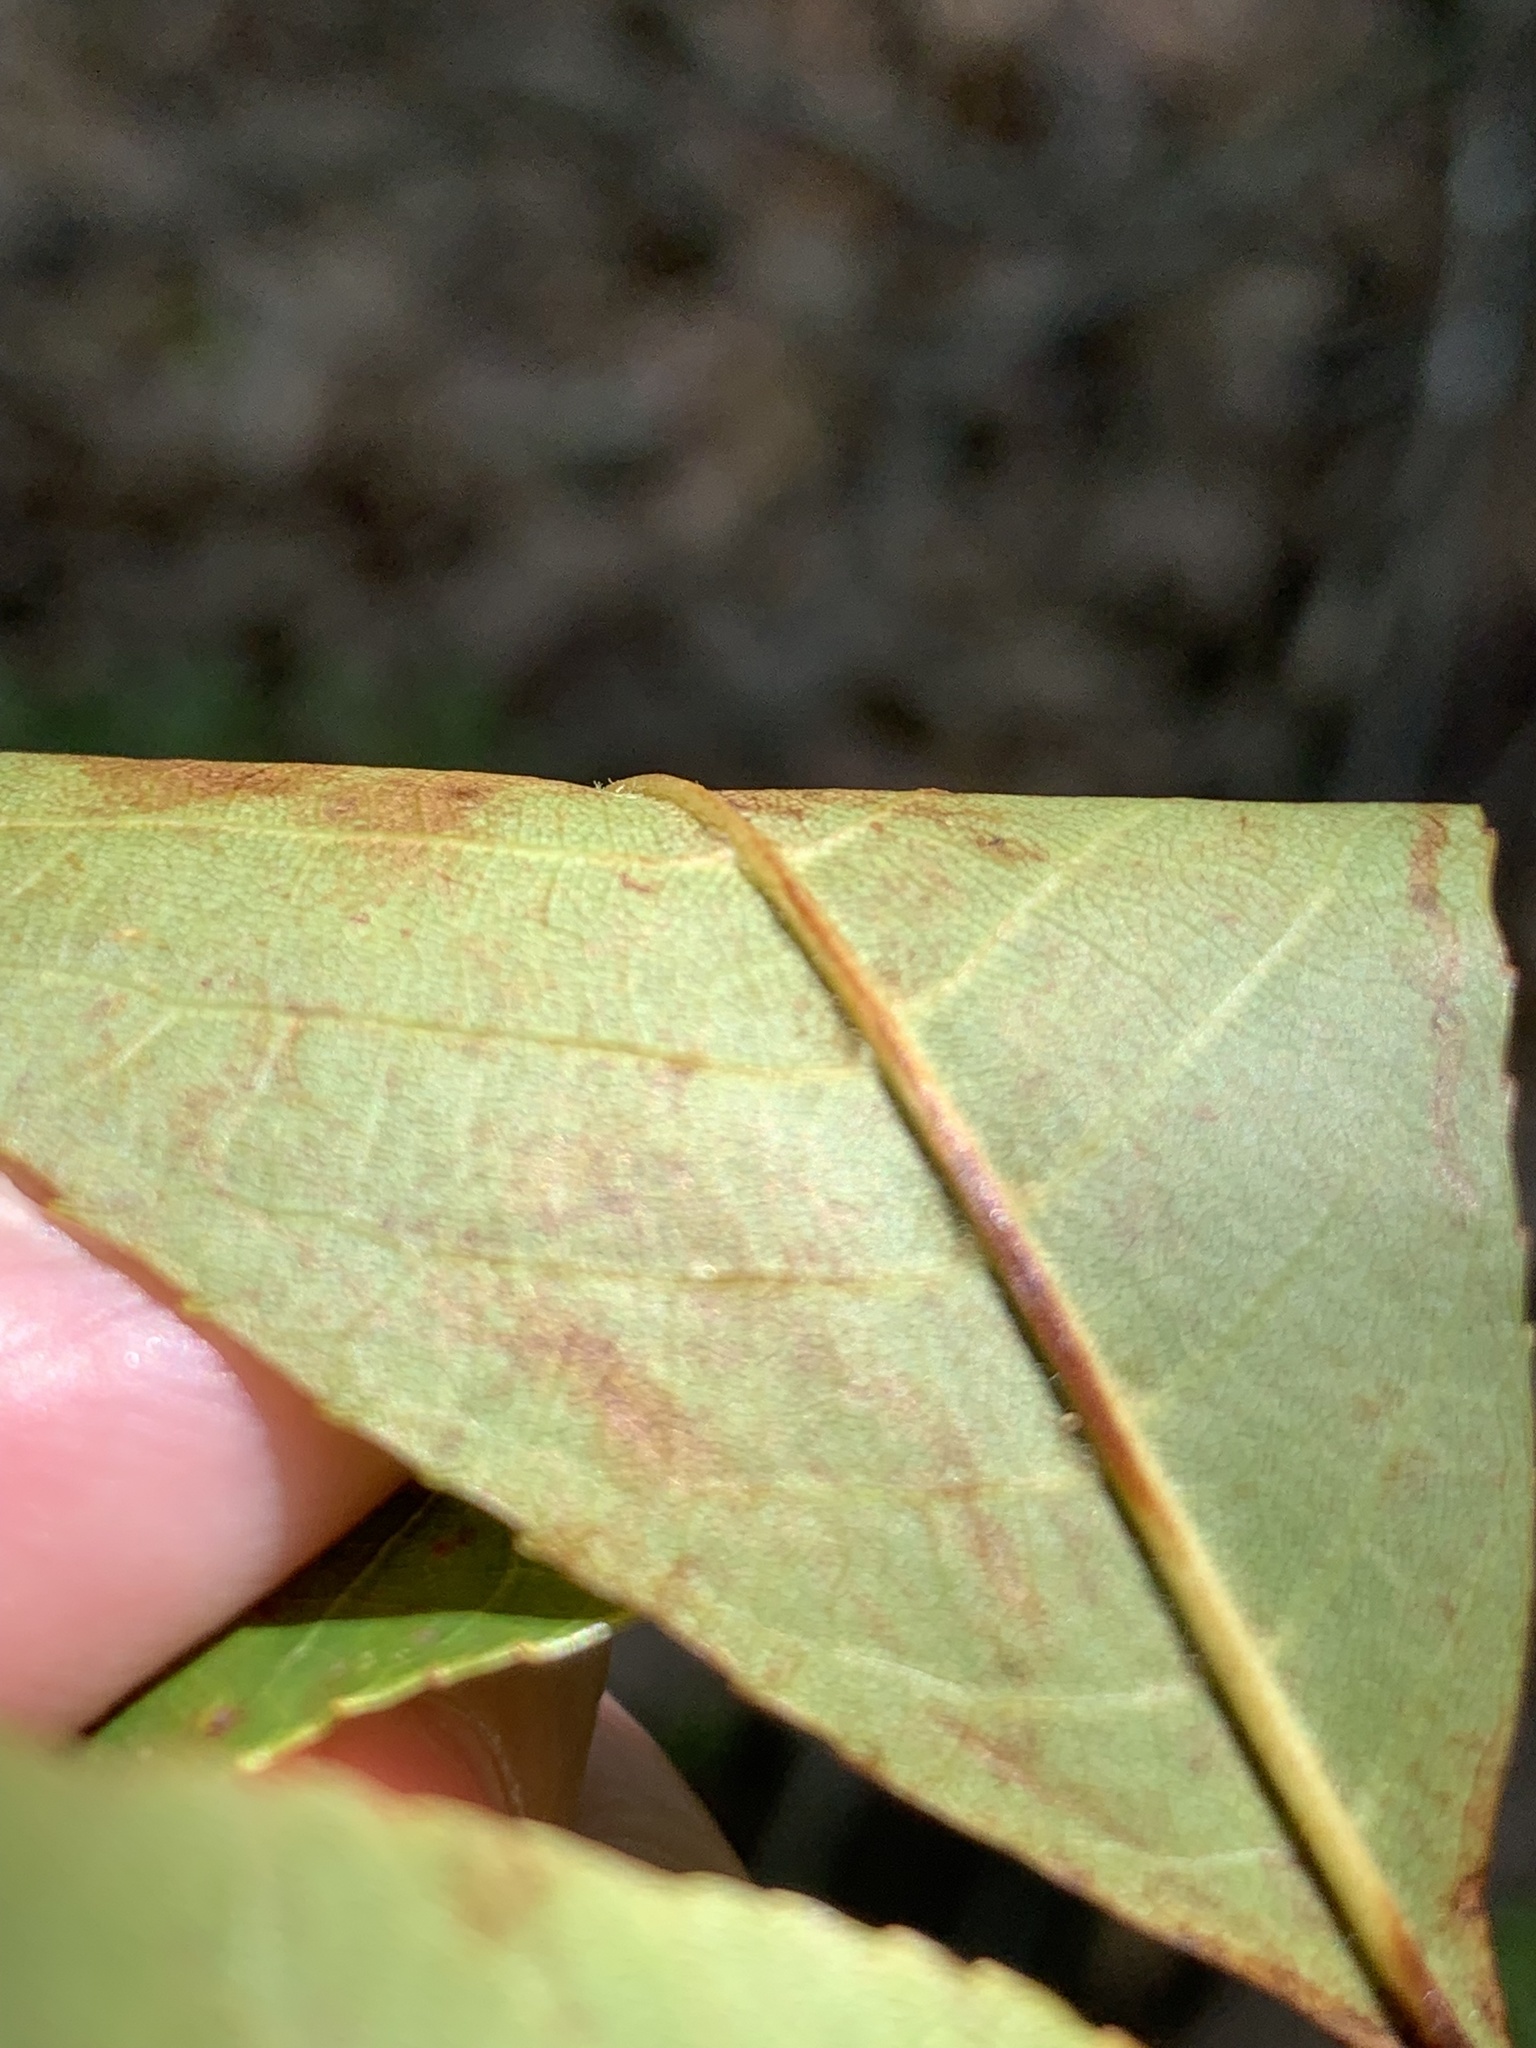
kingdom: Plantae
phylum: Tracheophyta
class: Magnoliopsida
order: Fagales
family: Juglandaceae
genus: Carya
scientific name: Carya ovalis
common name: False shagbark
